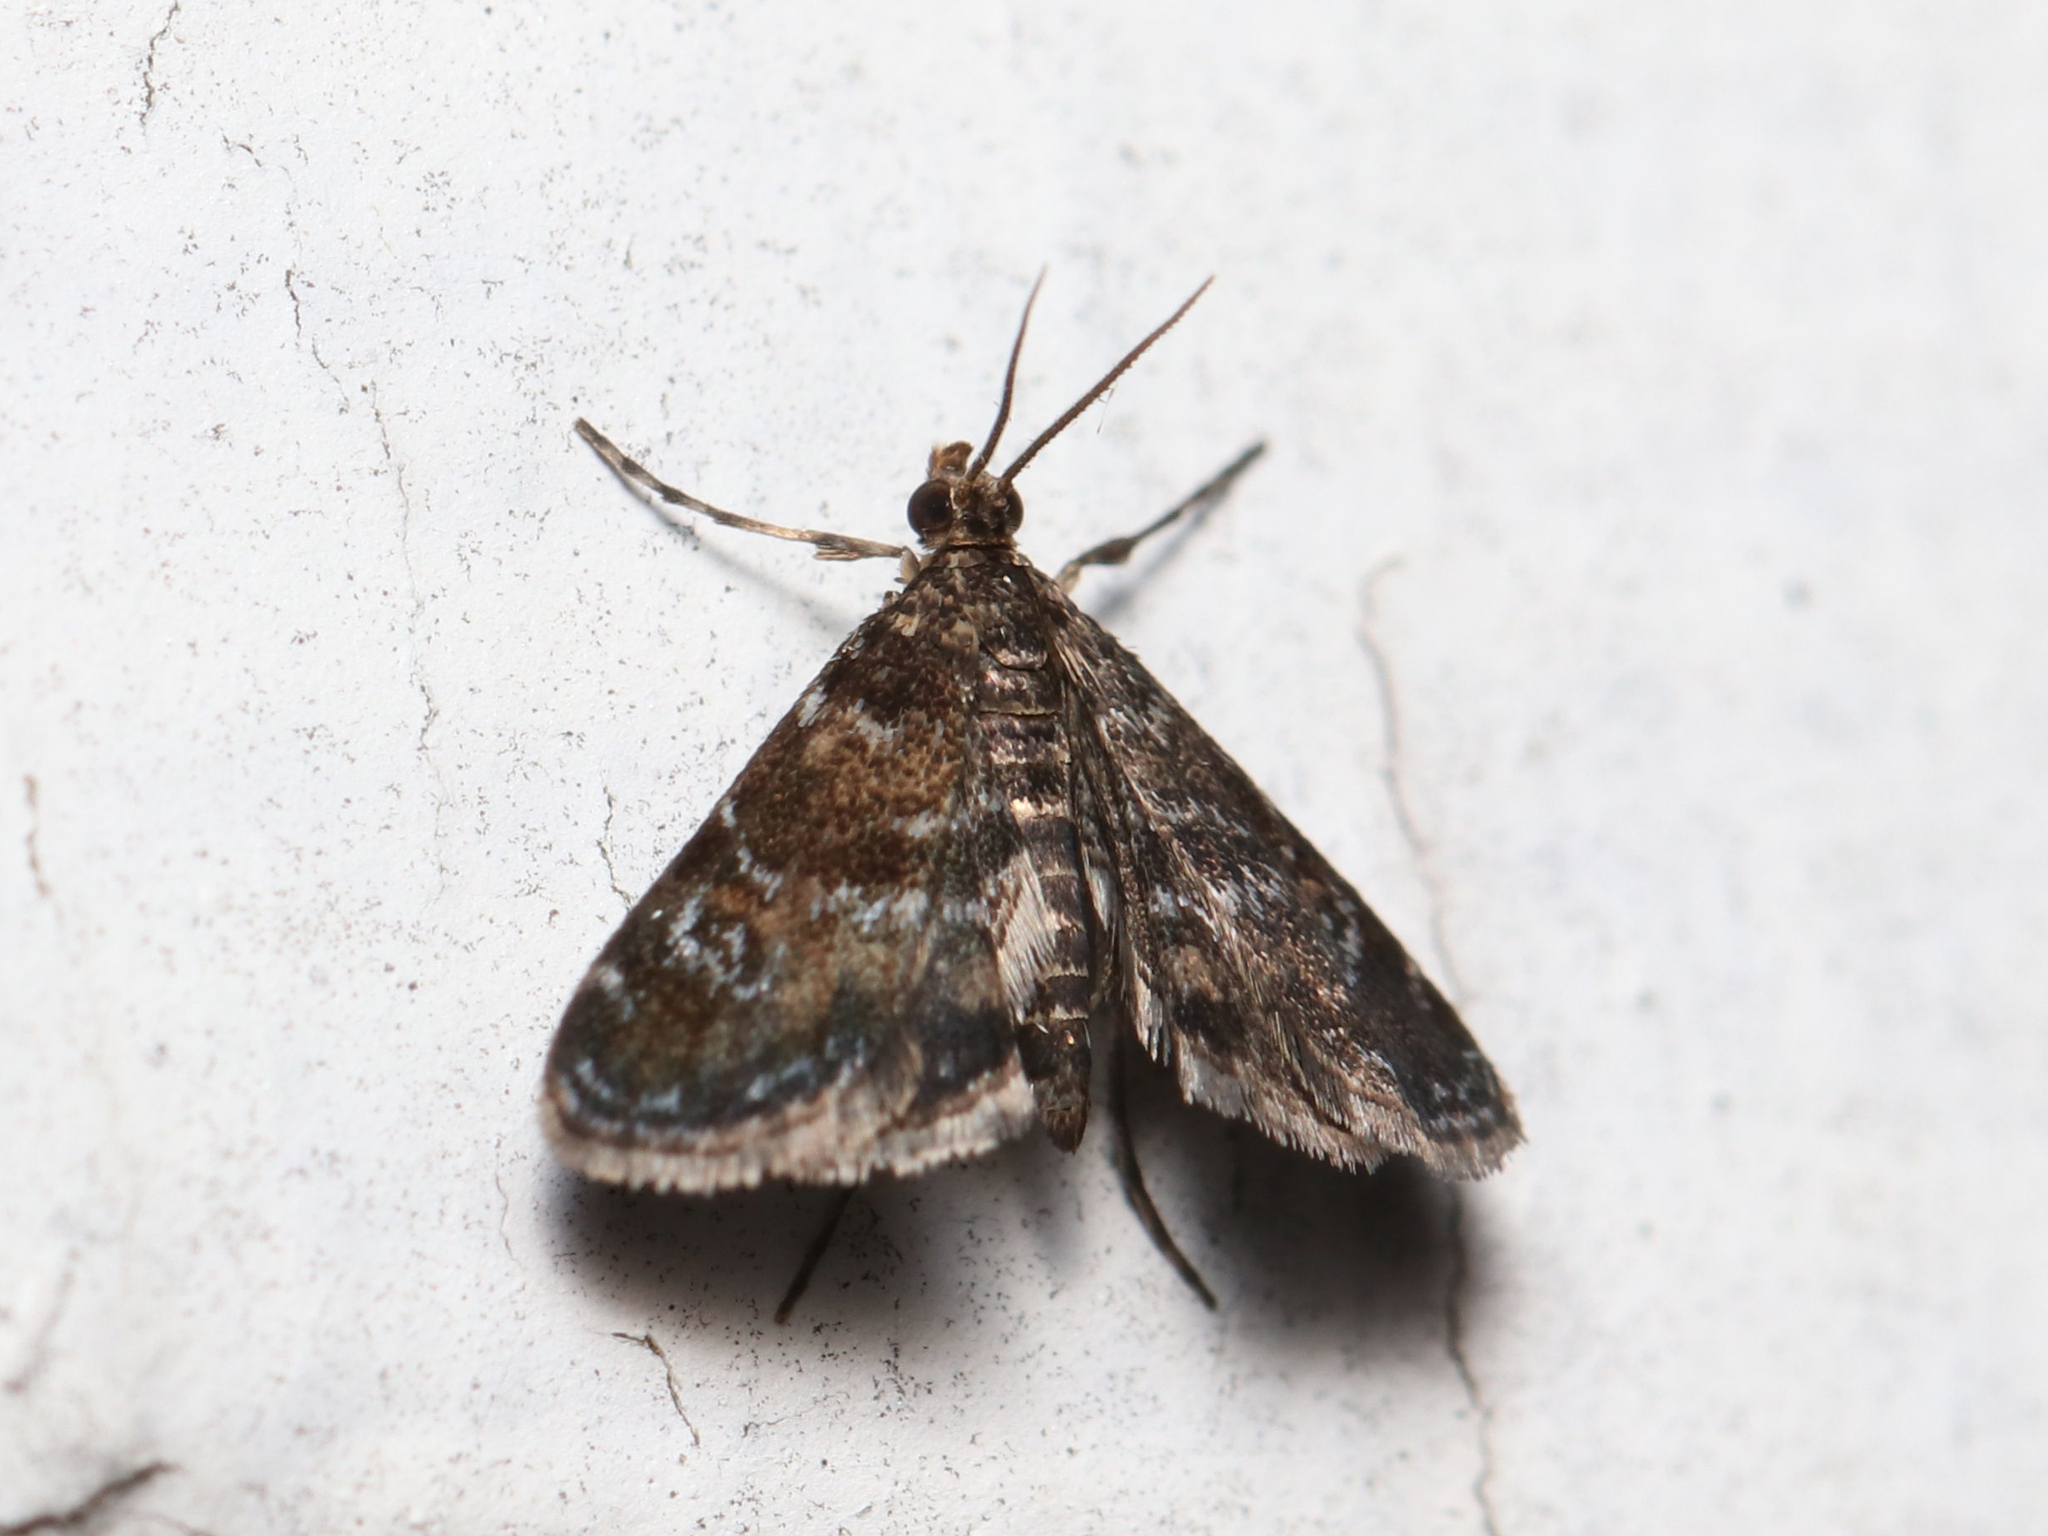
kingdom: Animalia
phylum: Arthropoda
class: Insecta
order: Lepidoptera
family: Crambidae
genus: Elophila
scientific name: Elophila obliteralis
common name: Waterlily leafcutter moth
